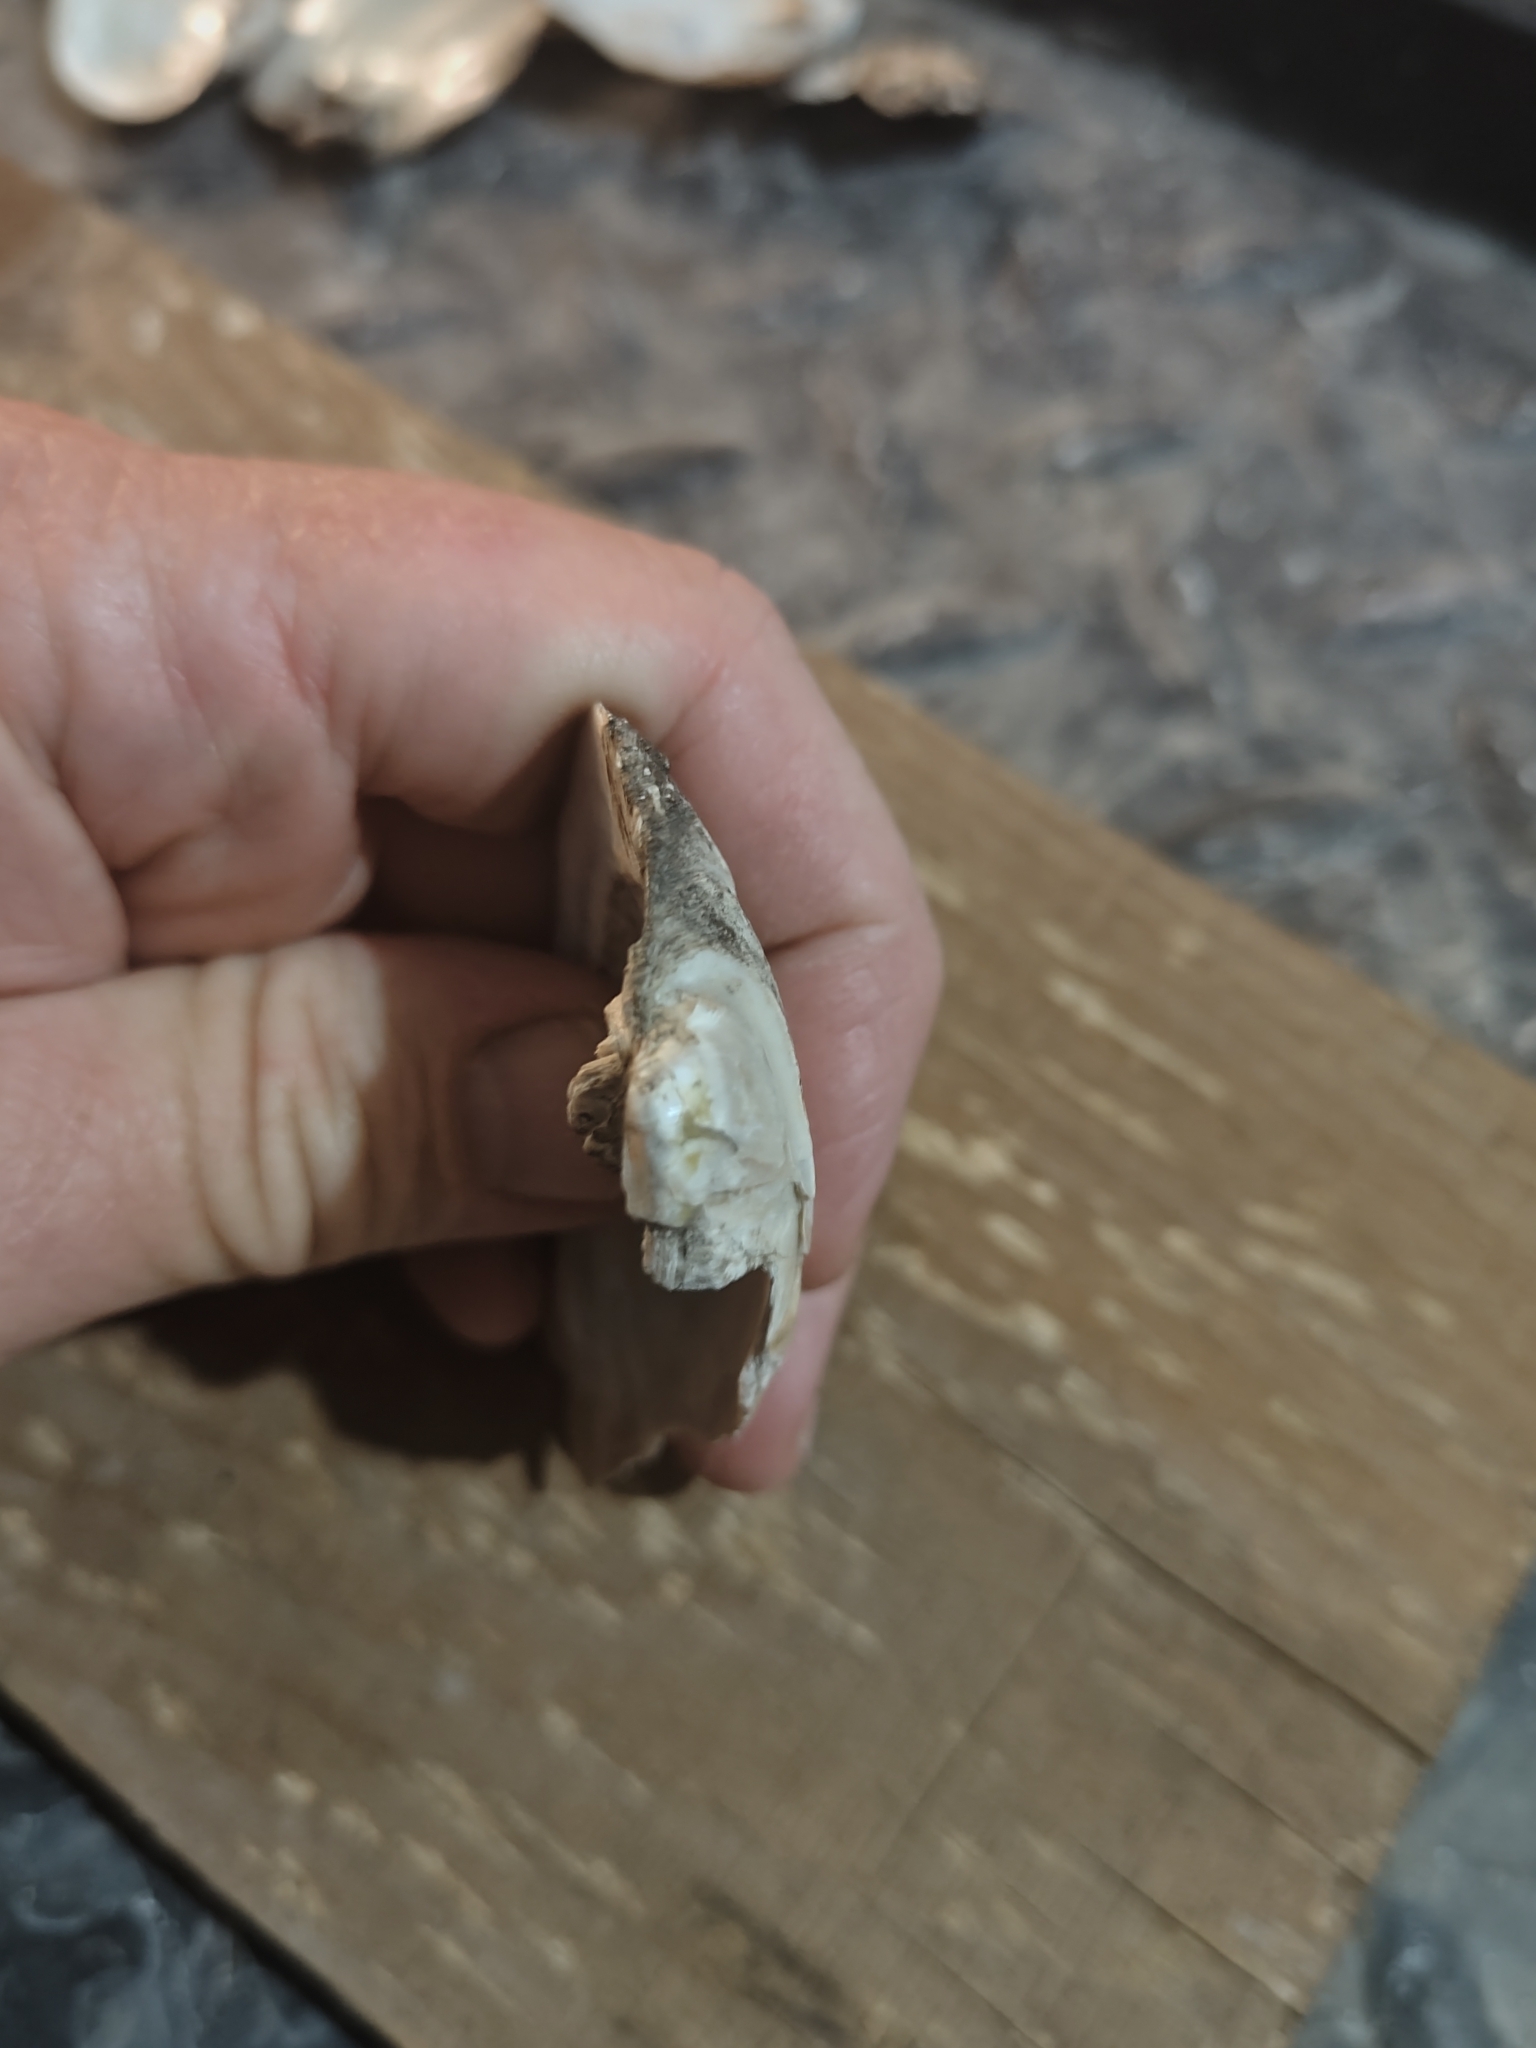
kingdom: Animalia
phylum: Mollusca
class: Bivalvia
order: Unionida
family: Unionidae
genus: Amblema
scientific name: Amblema plicata
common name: Threeridge
